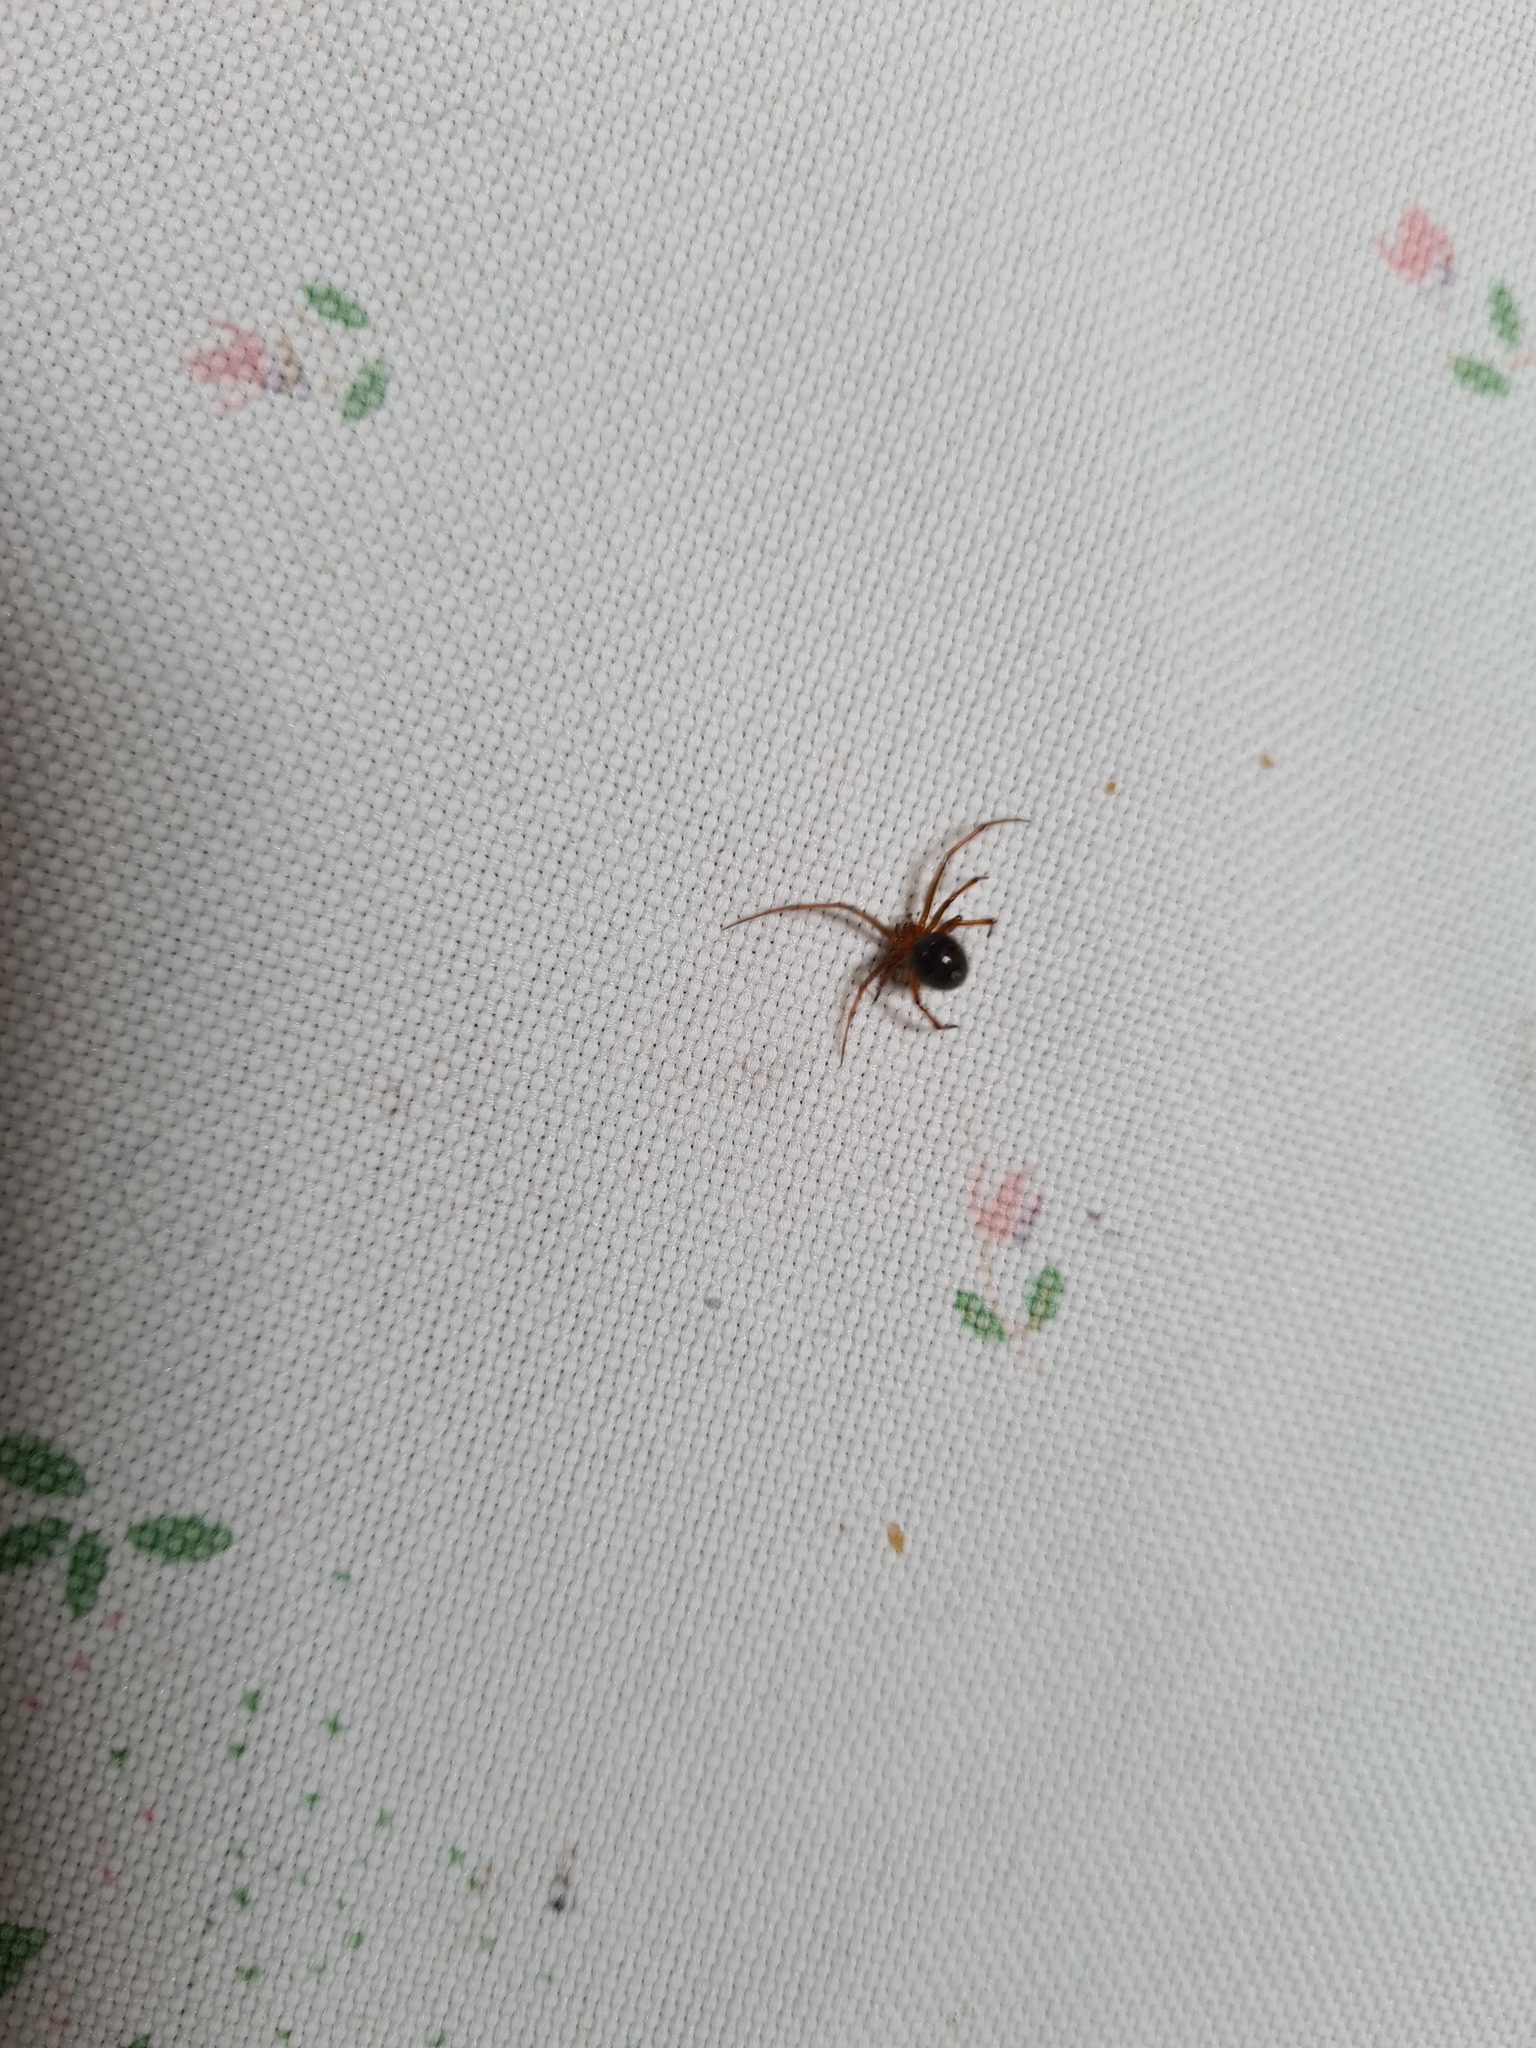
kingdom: Animalia
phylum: Arthropoda
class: Arachnida
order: Araneae
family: Theridiidae
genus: Nesticodes
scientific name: Nesticodes rufipes
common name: Cobweb spiders
